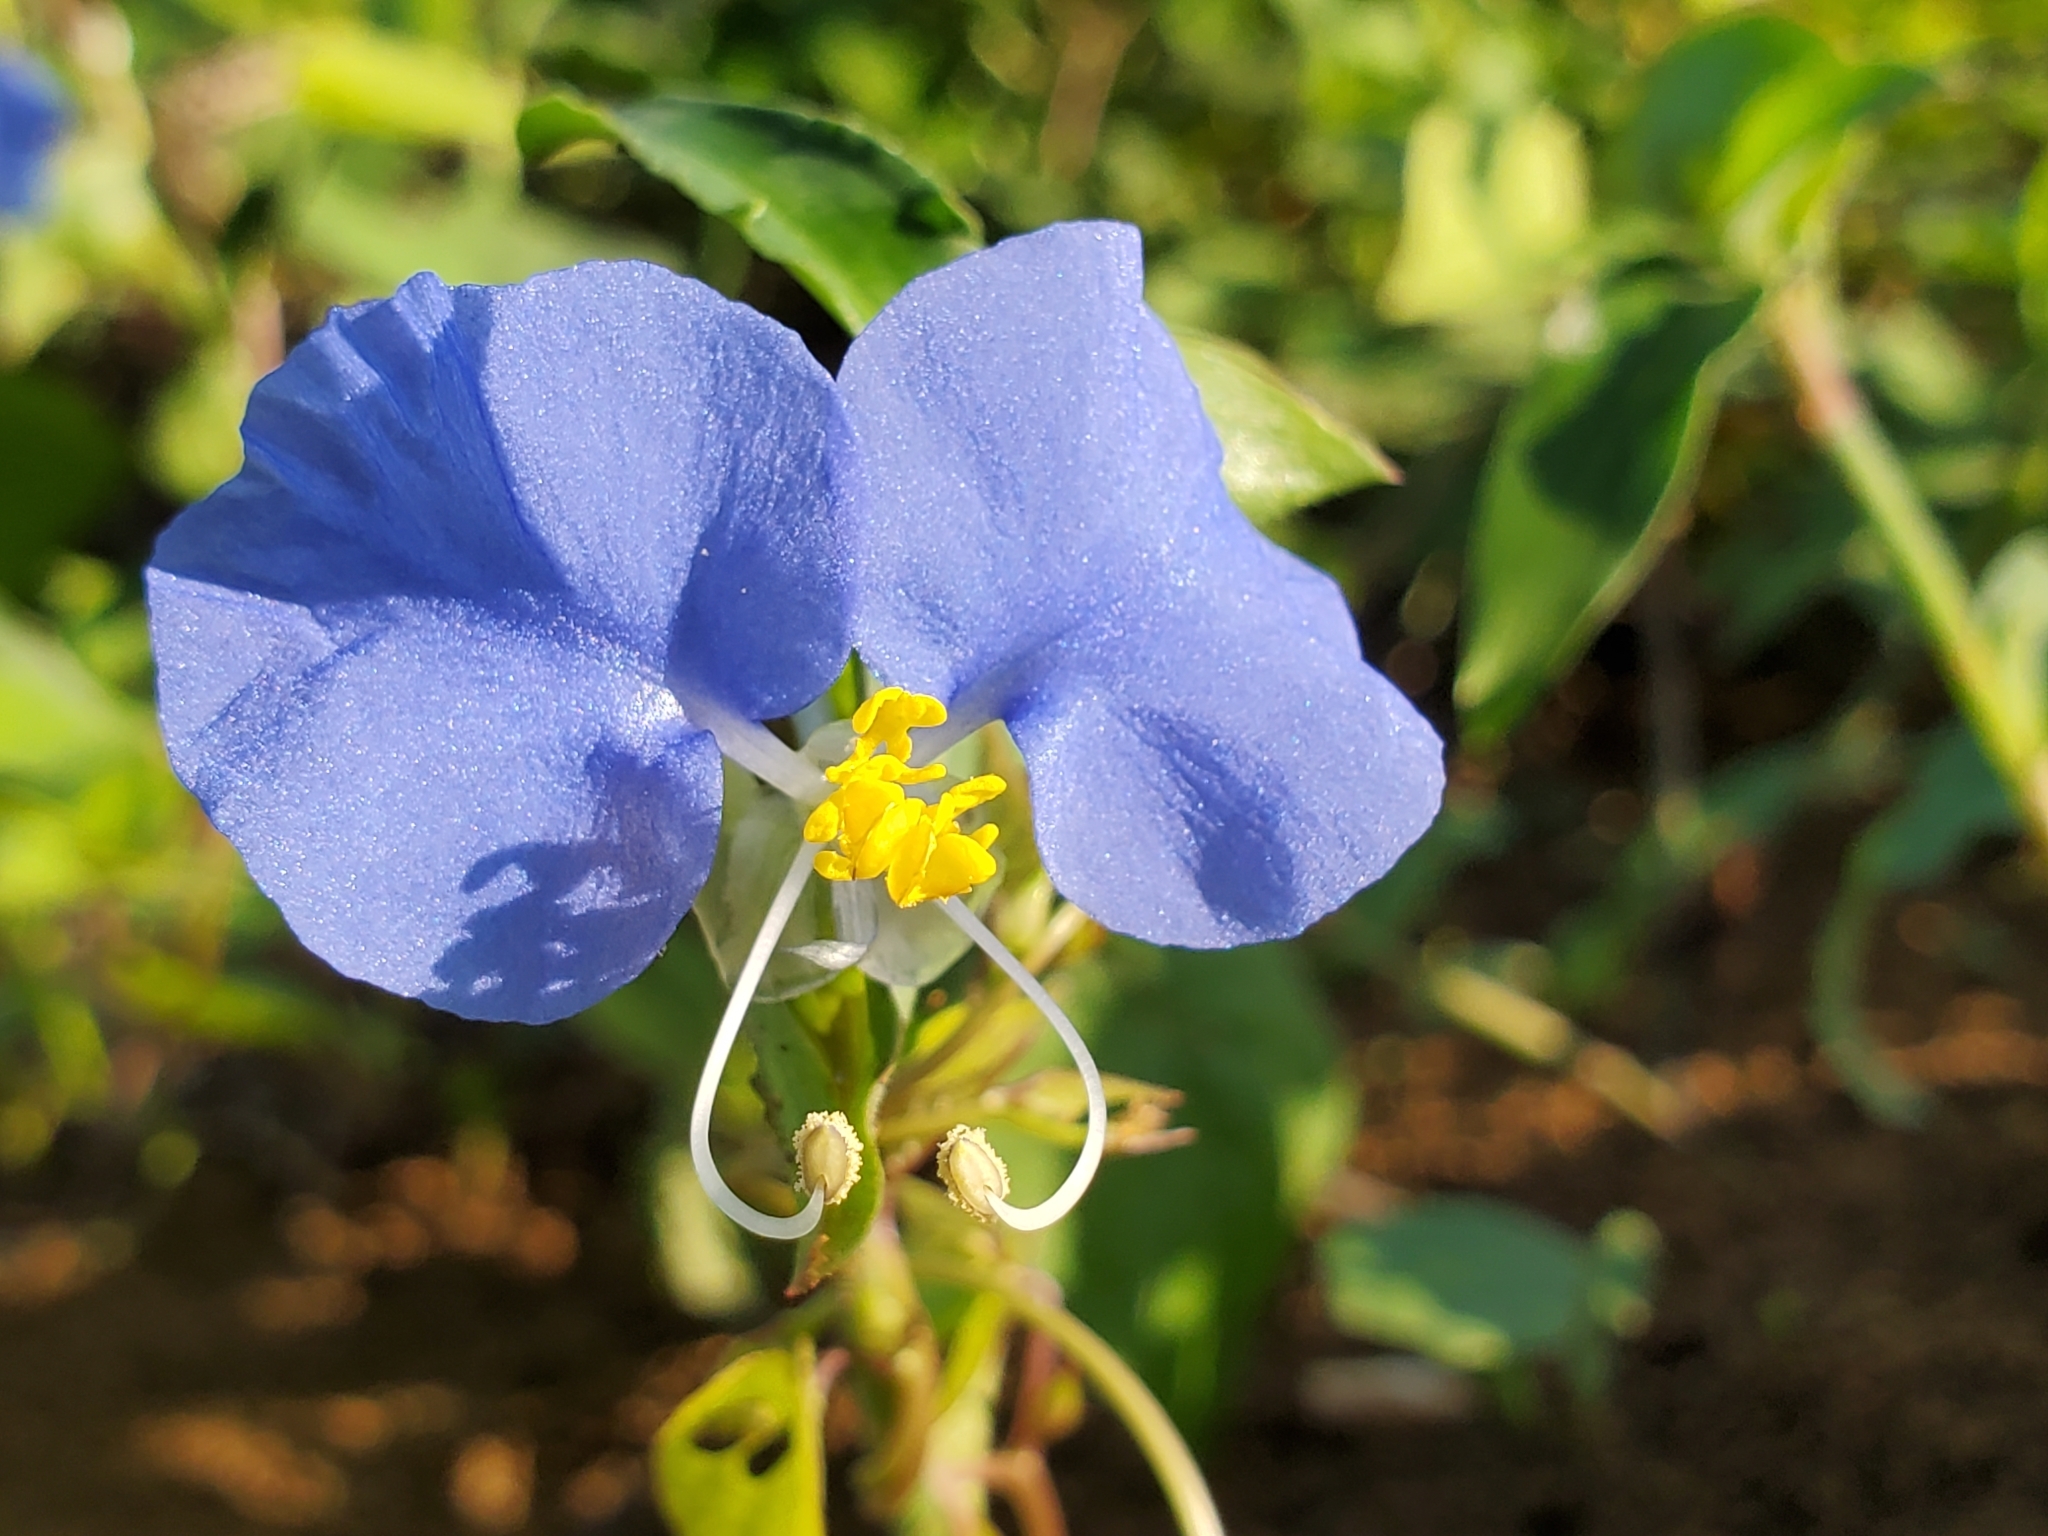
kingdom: Plantae
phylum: Tracheophyta
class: Liliopsida
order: Commelinales
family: Commelinaceae
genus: Commelina
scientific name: Commelina erecta
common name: Blousel blommetjie
